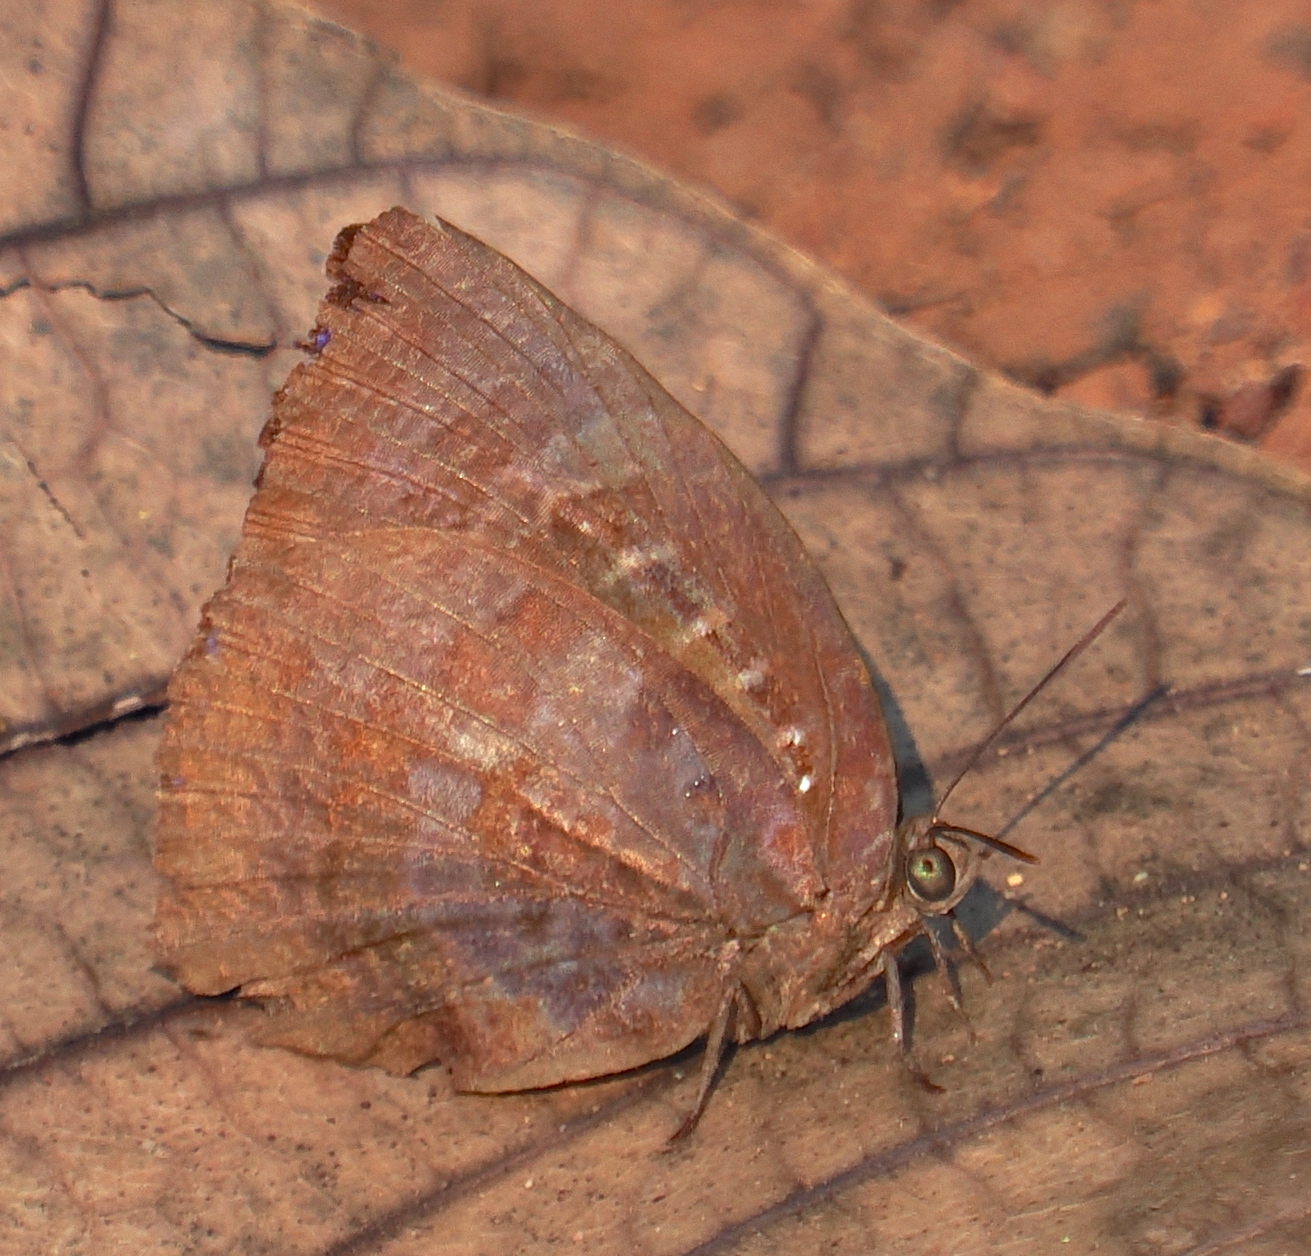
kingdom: Animalia
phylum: Arthropoda
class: Insecta
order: Lepidoptera
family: Lycaenidae
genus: Arhopala
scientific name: Arhopala centaurus
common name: Dull oak-blue
